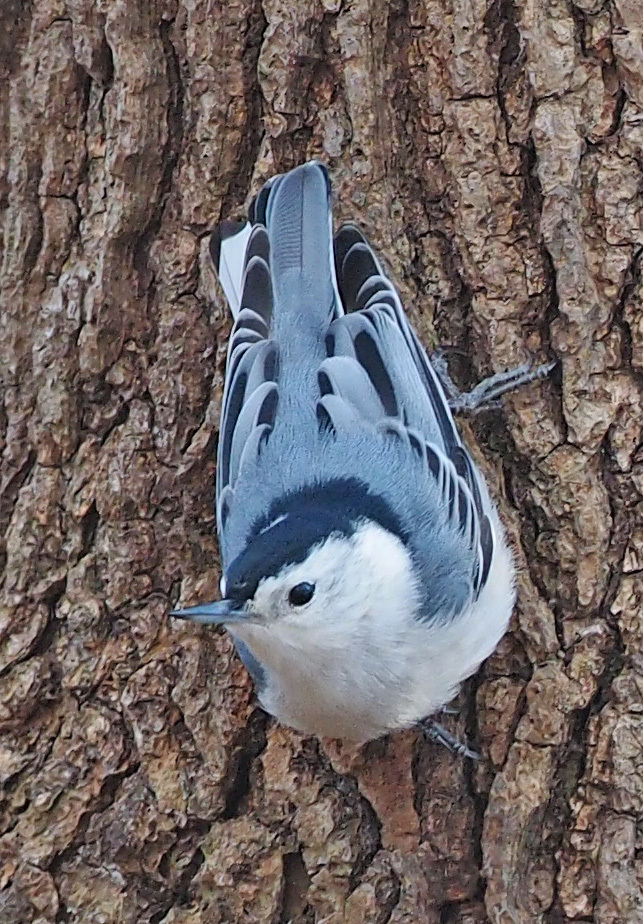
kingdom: Animalia
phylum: Chordata
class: Aves
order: Passeriformes
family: Sittidae
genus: Sitta
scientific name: Sitta carolinensis
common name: White-breasted nuthatch
